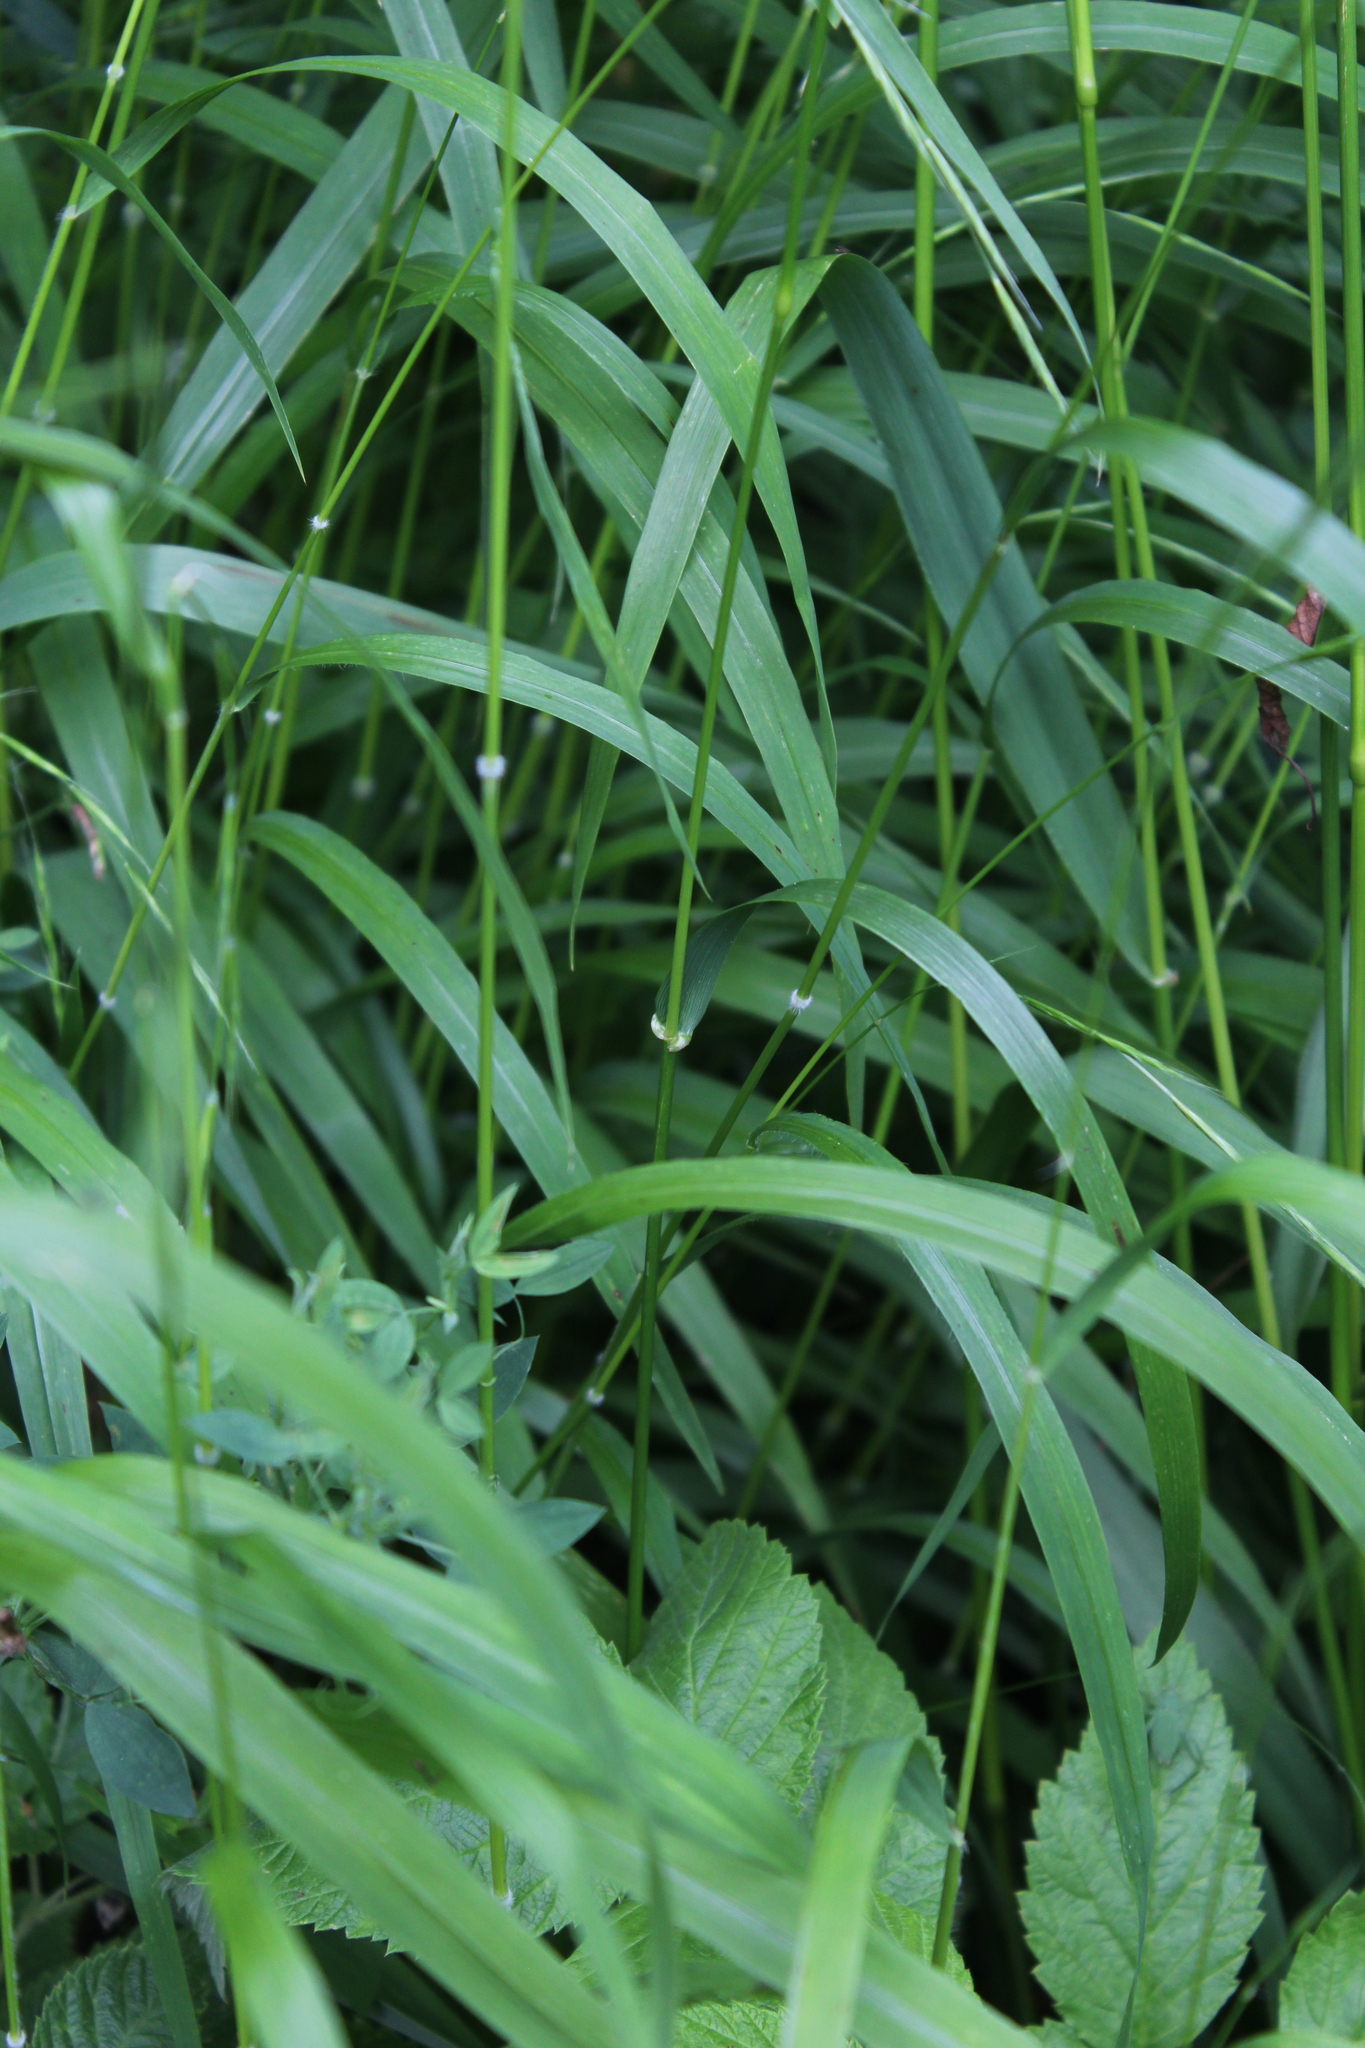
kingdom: Plantae
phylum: Tracheophyta
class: Liliopsida
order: Poales
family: Poaceae
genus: Lolium
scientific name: Lolium giganteum
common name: Giant fescue
